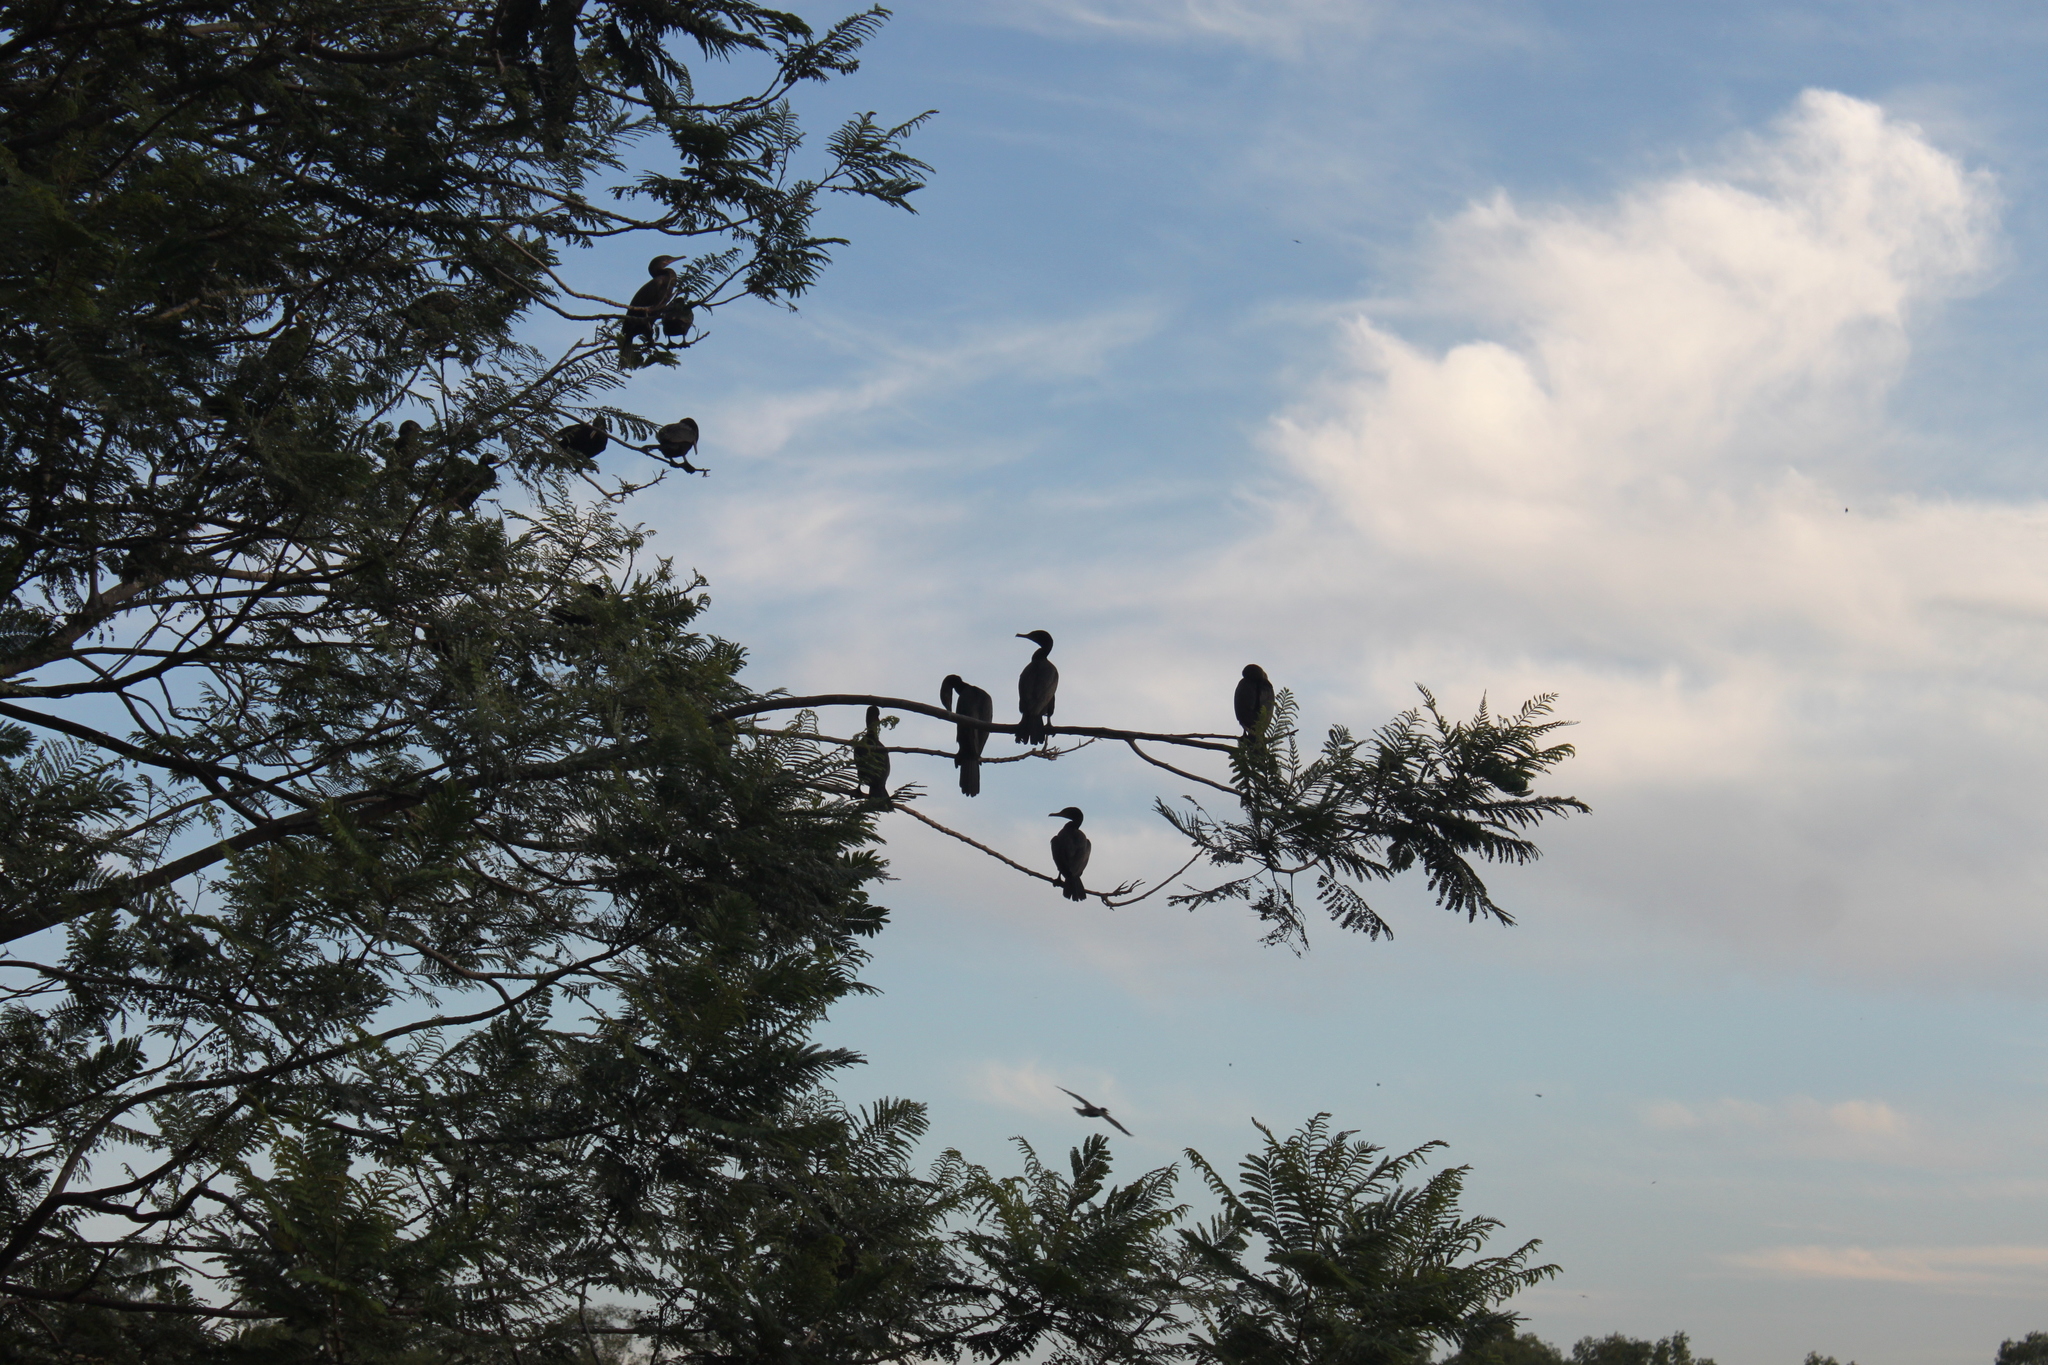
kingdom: Animalia
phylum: Chordata
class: Aves
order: Suliformes
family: Phalacrocoracidae
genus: Phalacrocorax
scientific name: Phalacrocorax brasilianus
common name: Neotropic cormorant
